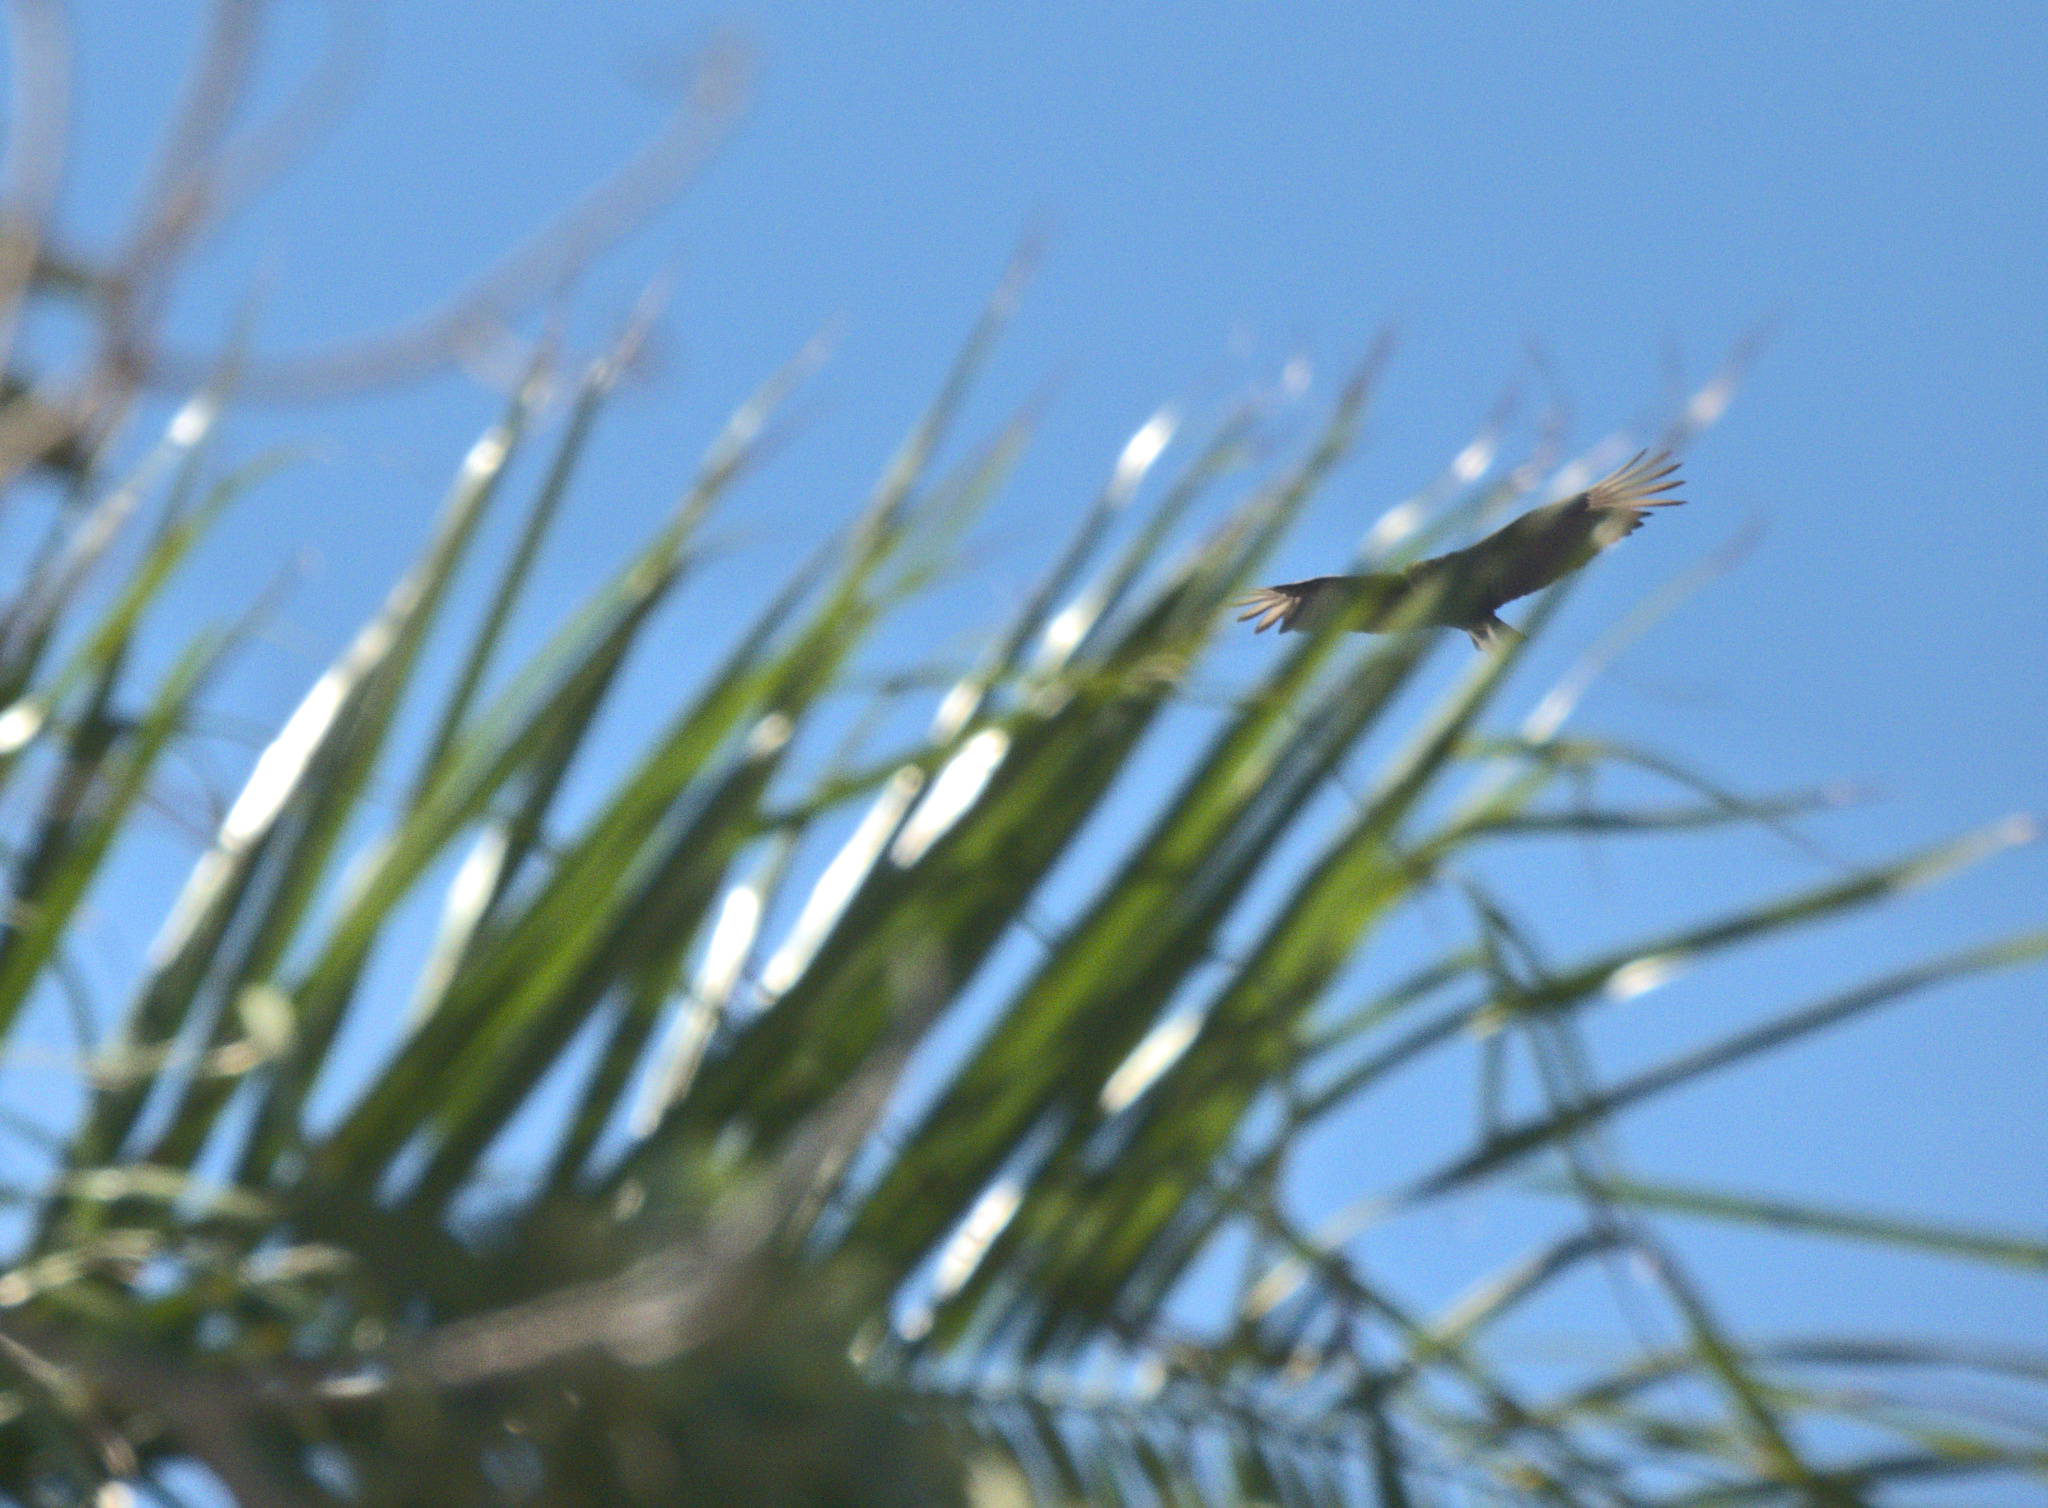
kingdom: Animalia
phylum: Chordata
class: Aves
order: Accipitriformes
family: Cathartidae
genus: Coragyps
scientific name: Coragyps atratus
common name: Black vulture
